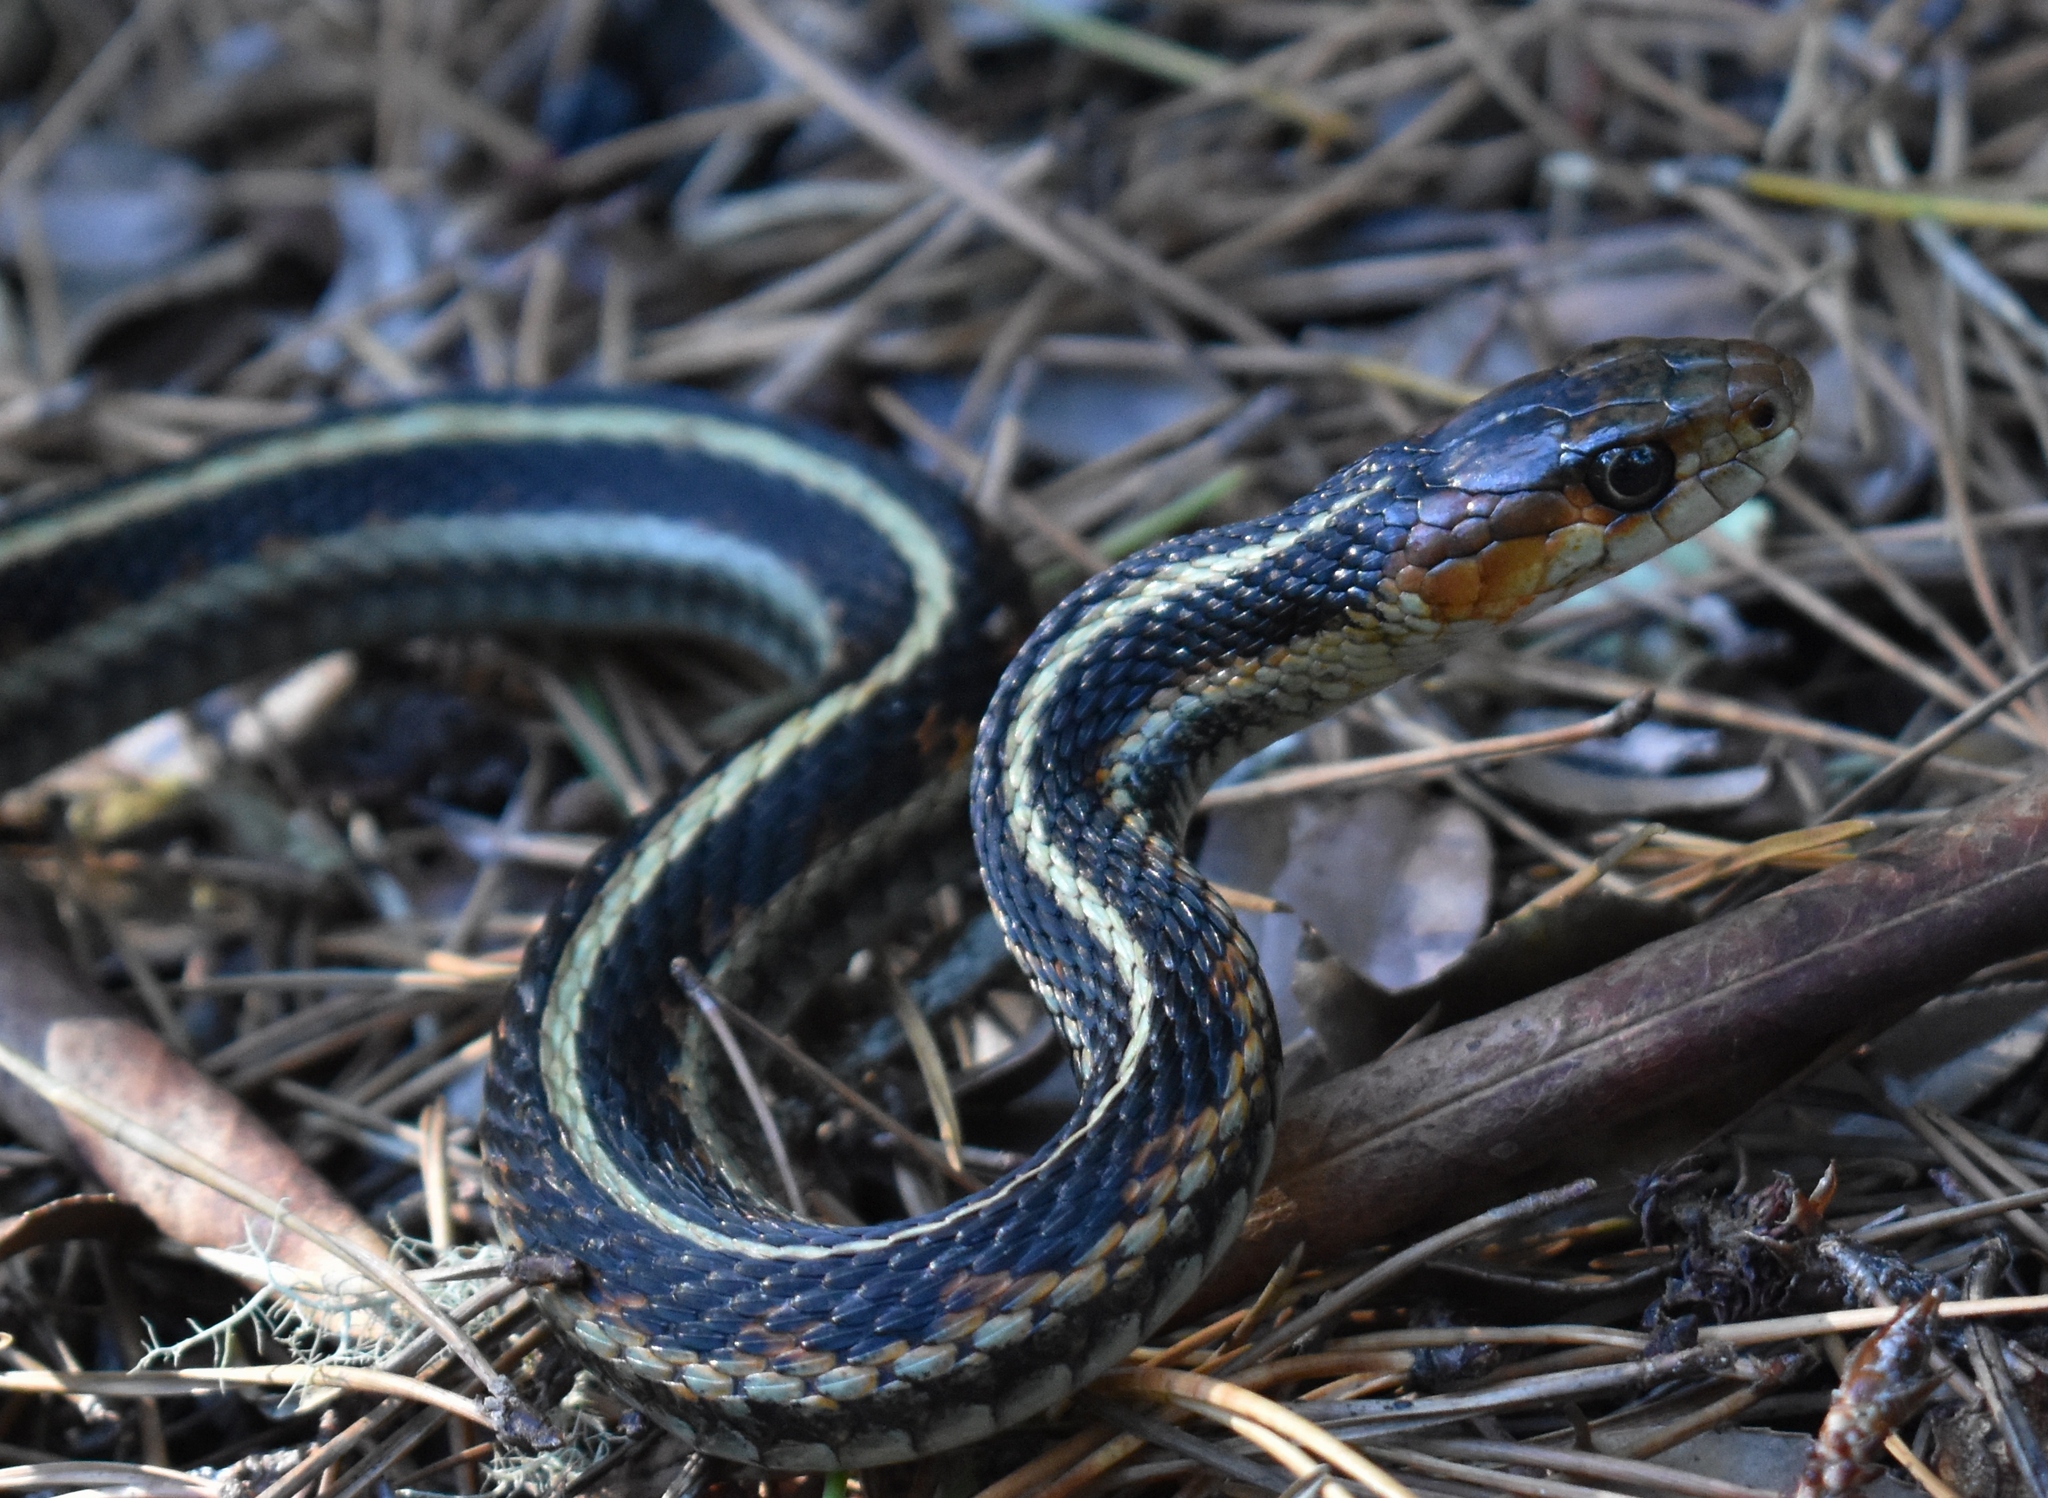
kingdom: Animalia
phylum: Chordata
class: Squamata
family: Colubridae
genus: Thamnophis
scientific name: Thamnophis sirtalis
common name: Common garter snake
